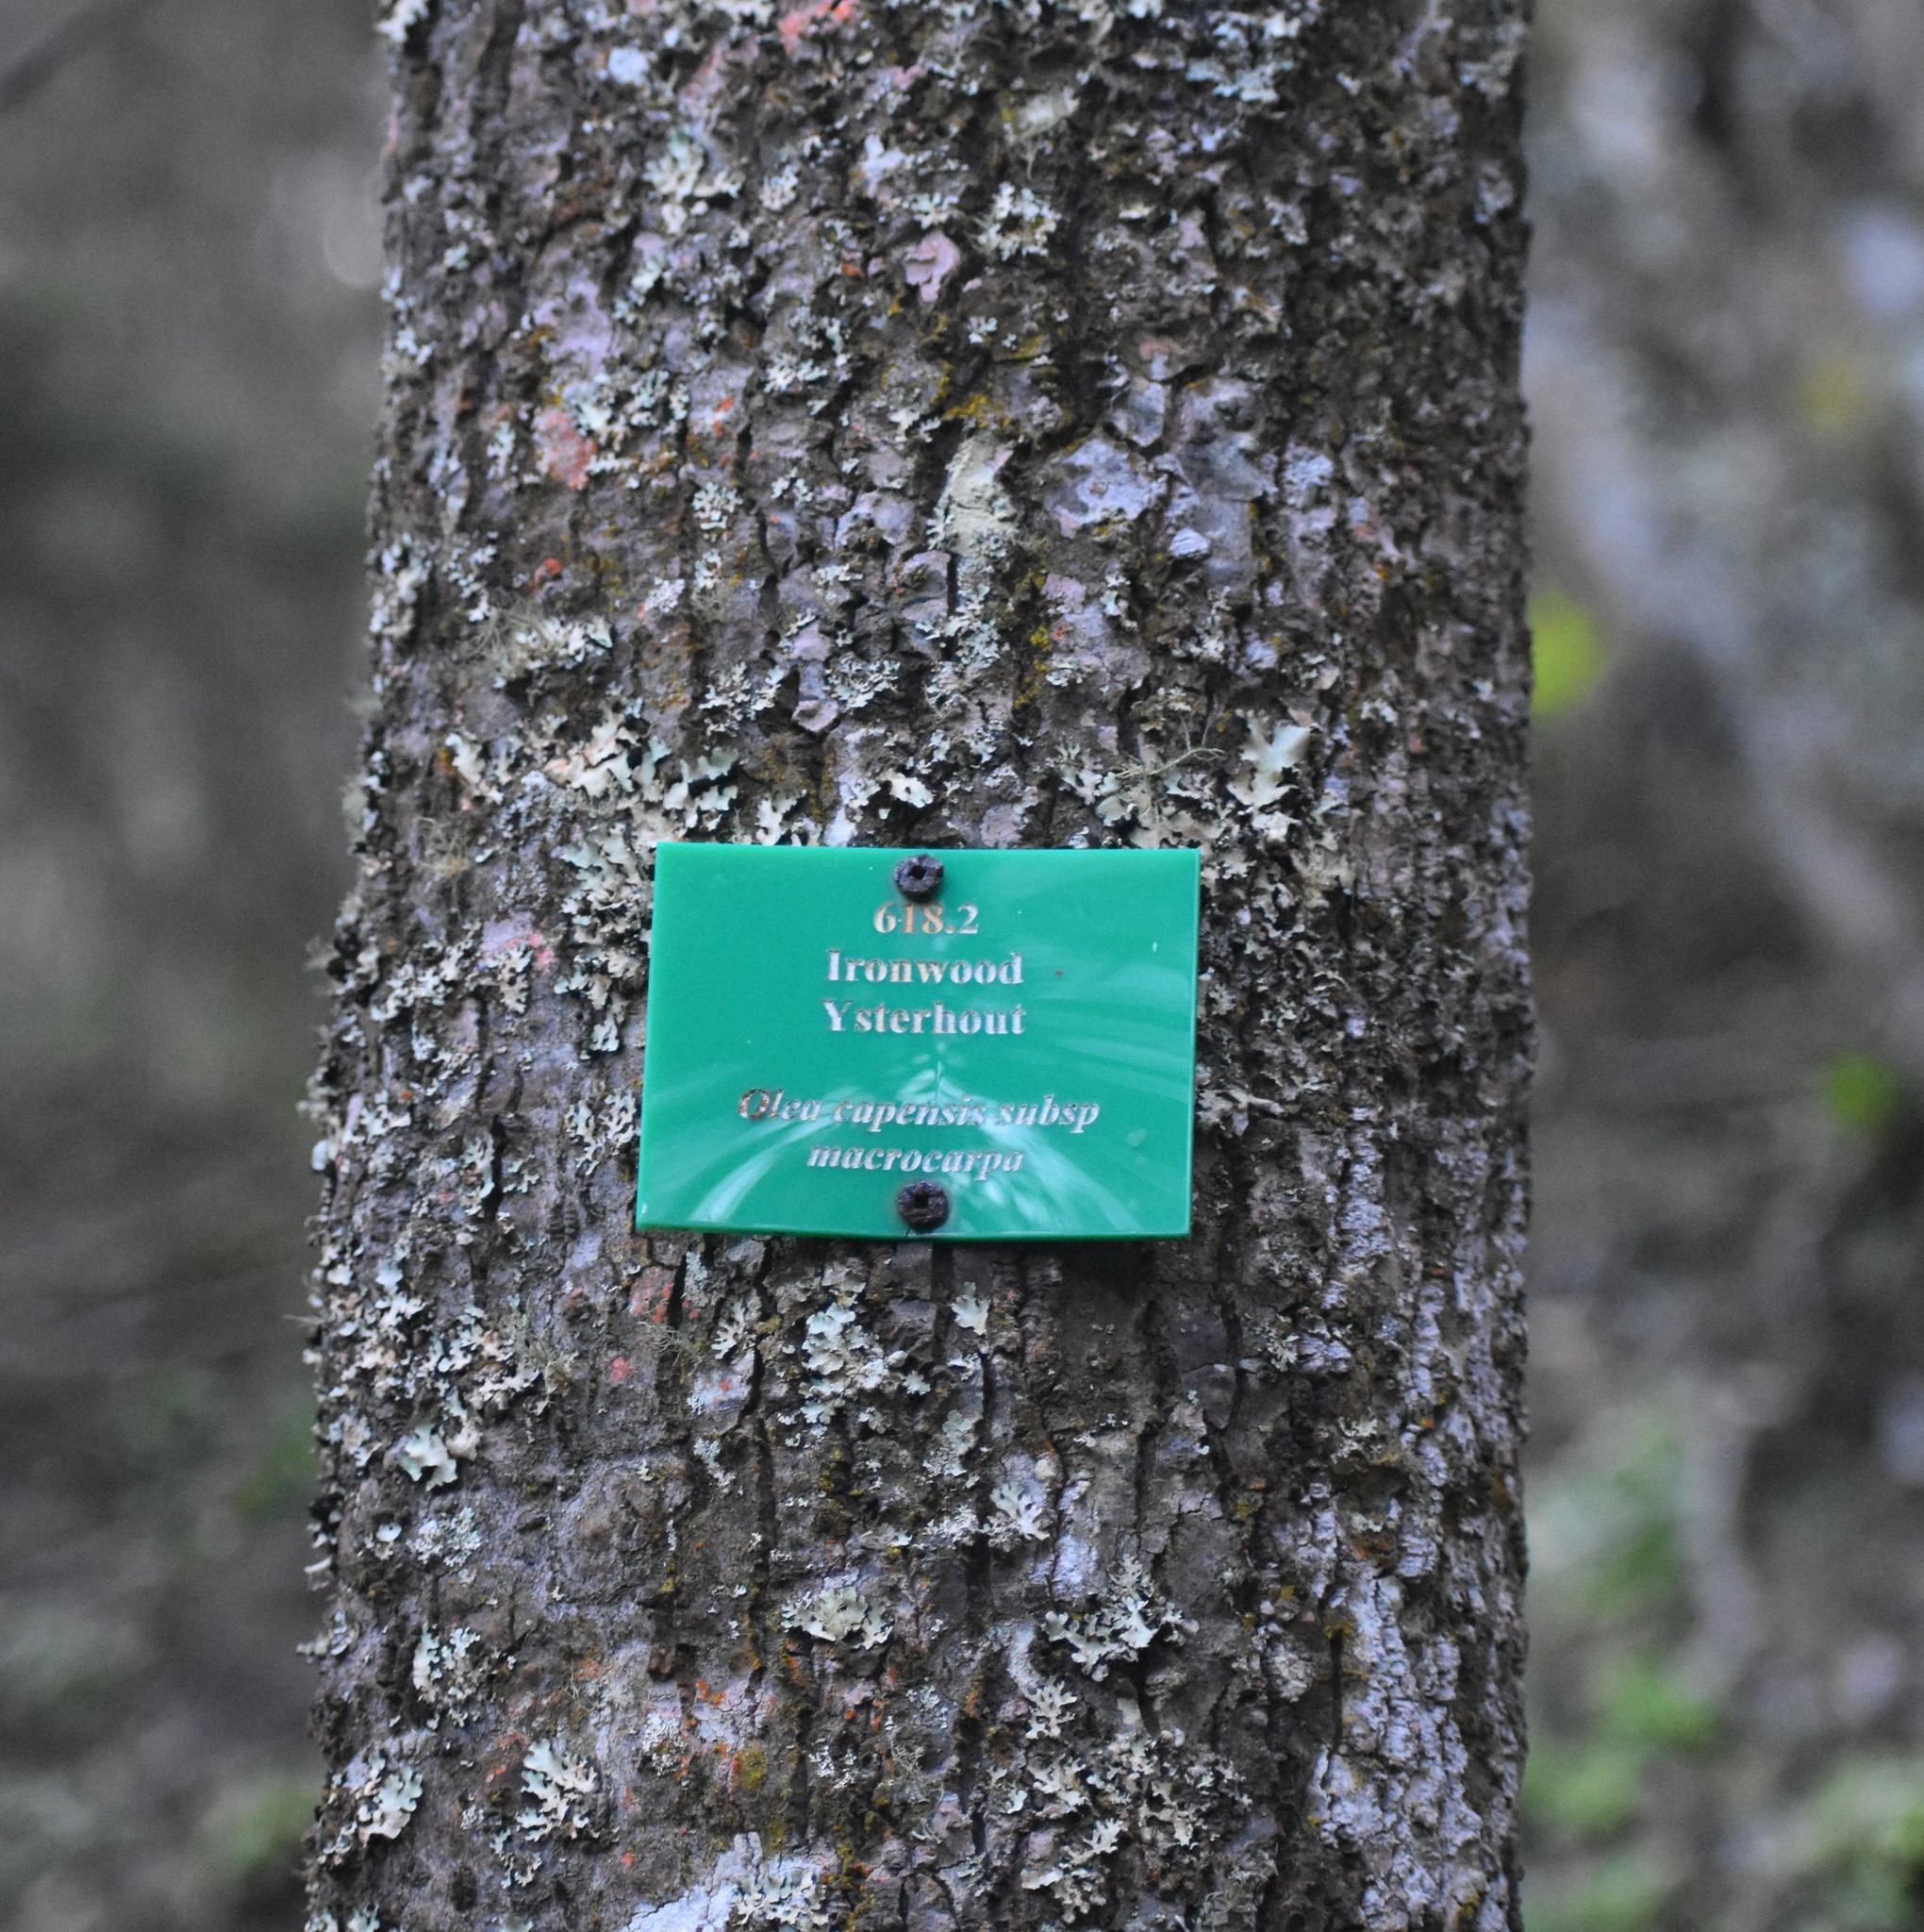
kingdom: Plantae
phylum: Tracheophyta
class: Magnoliopsida
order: Lamiales
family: Oleaceae
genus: Olea
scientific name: Olea capensis
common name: Black ironwood
